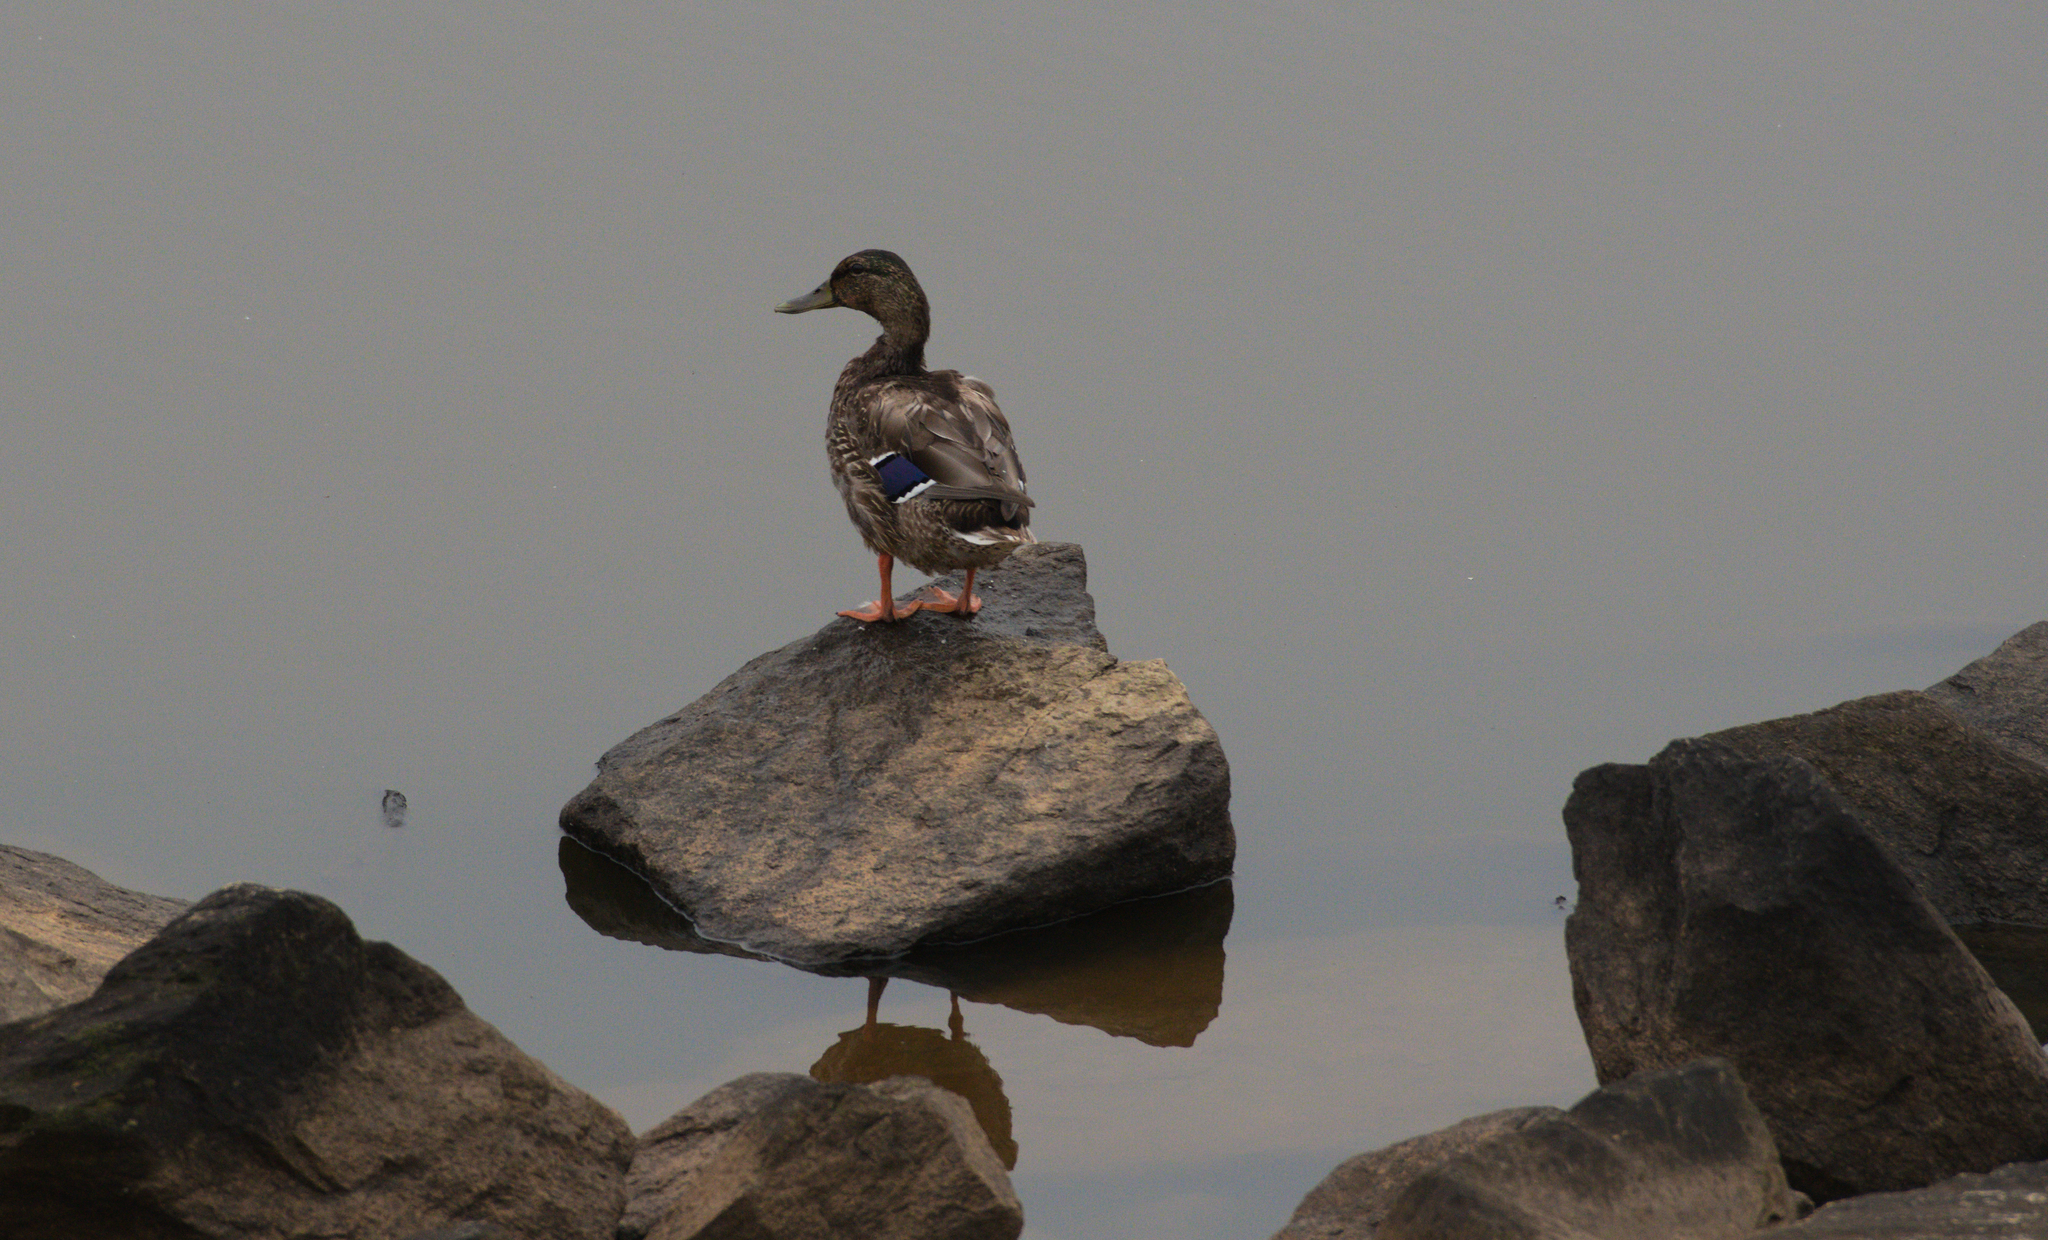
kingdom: Animalia
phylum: Chordata
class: Aves
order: Anseriformes
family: Anatidae
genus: Anas
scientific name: Anas platyrhynchos
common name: Mallard
